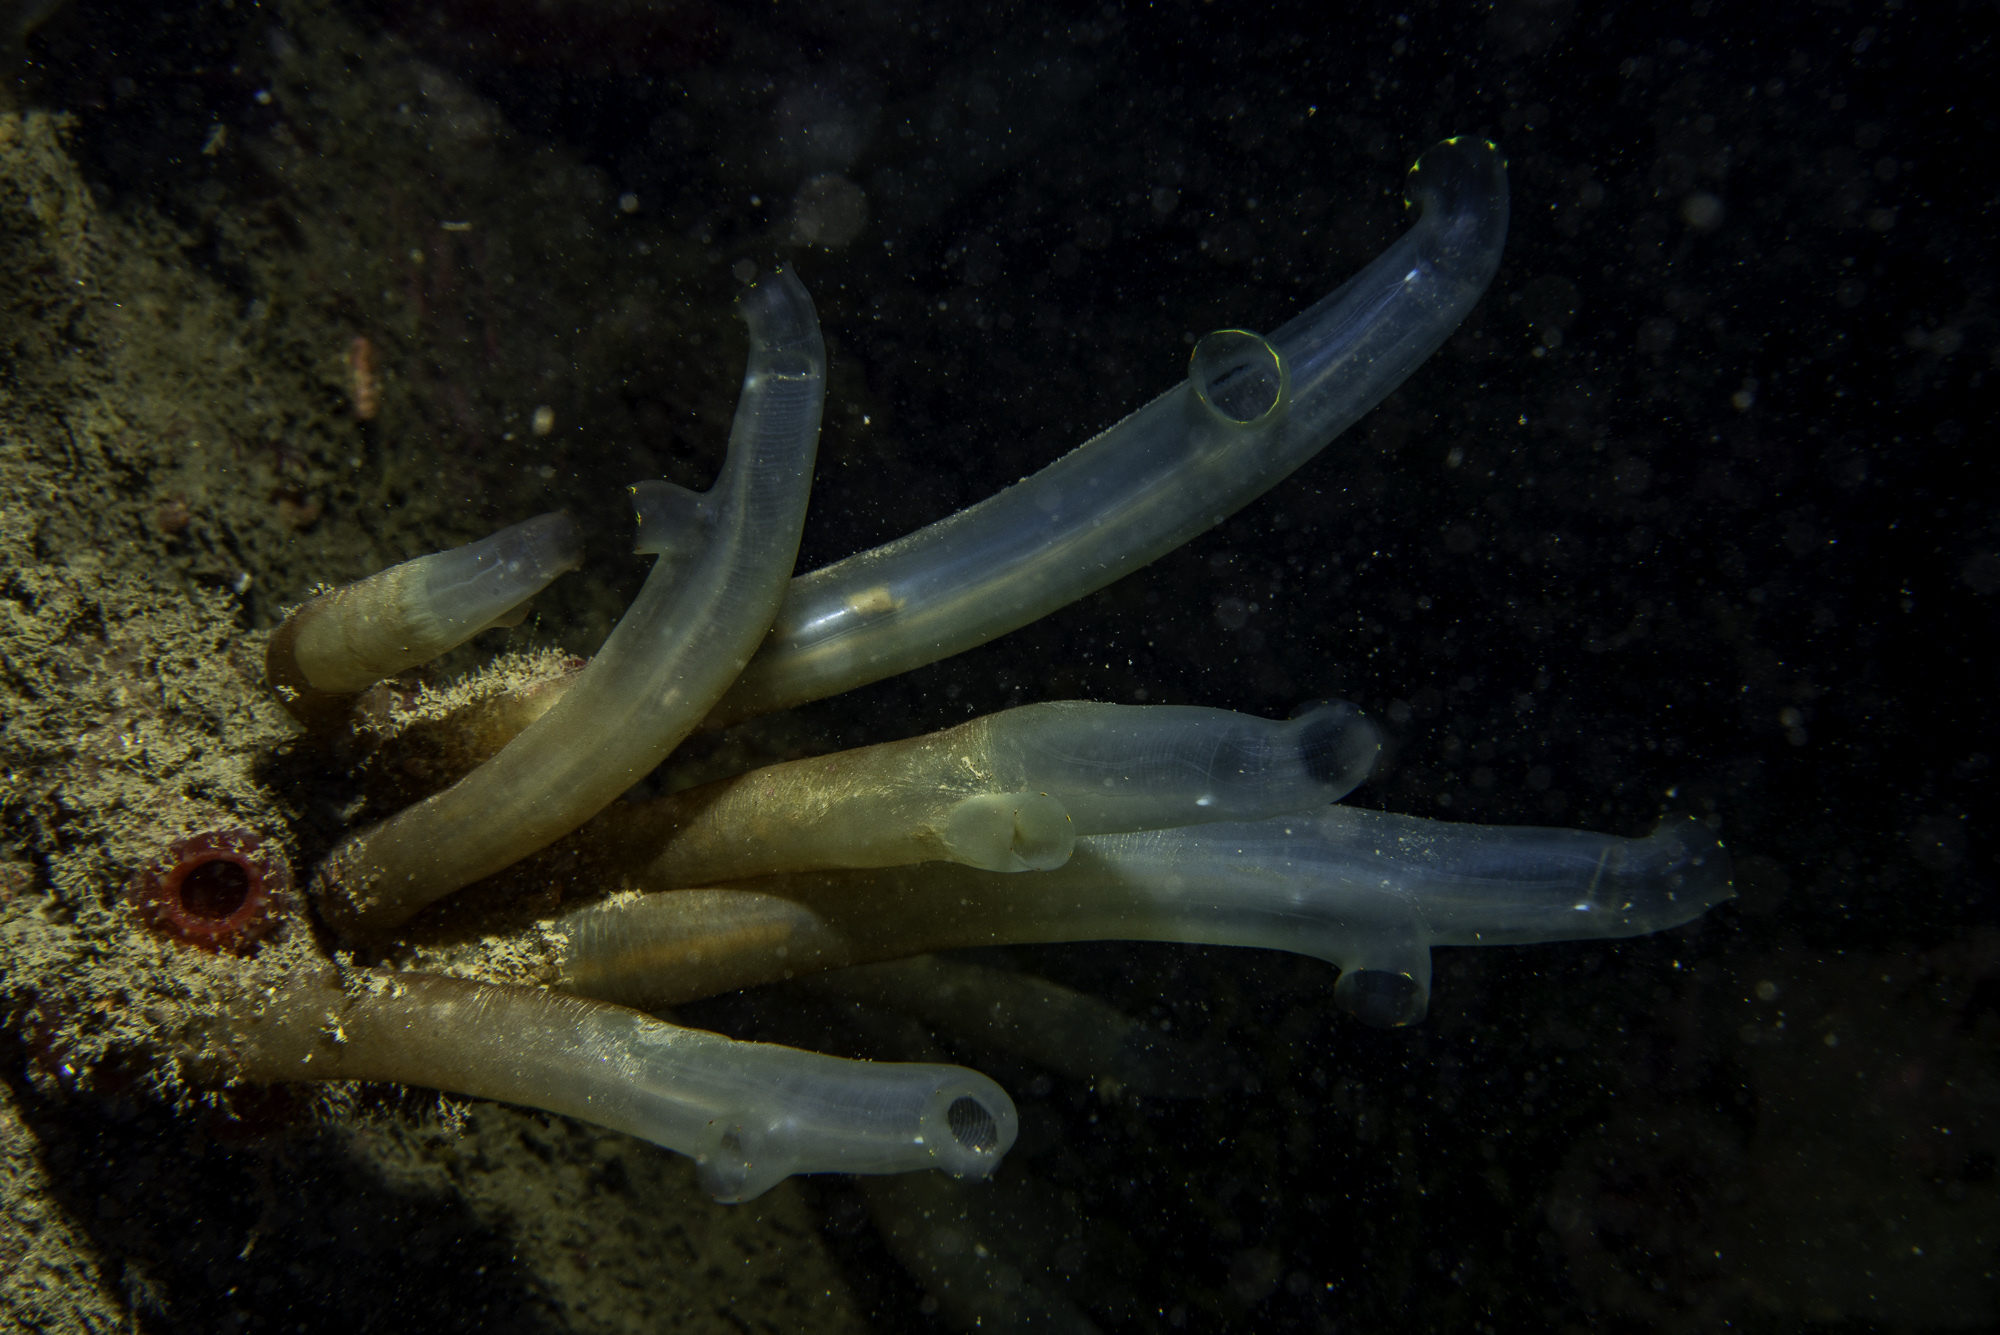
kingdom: Animalia
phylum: Chordata
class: Ascidiacea
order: Phlebobranchia
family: Cionidae
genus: Ciona
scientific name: Ciona intestinalis
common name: Vase tunicate
